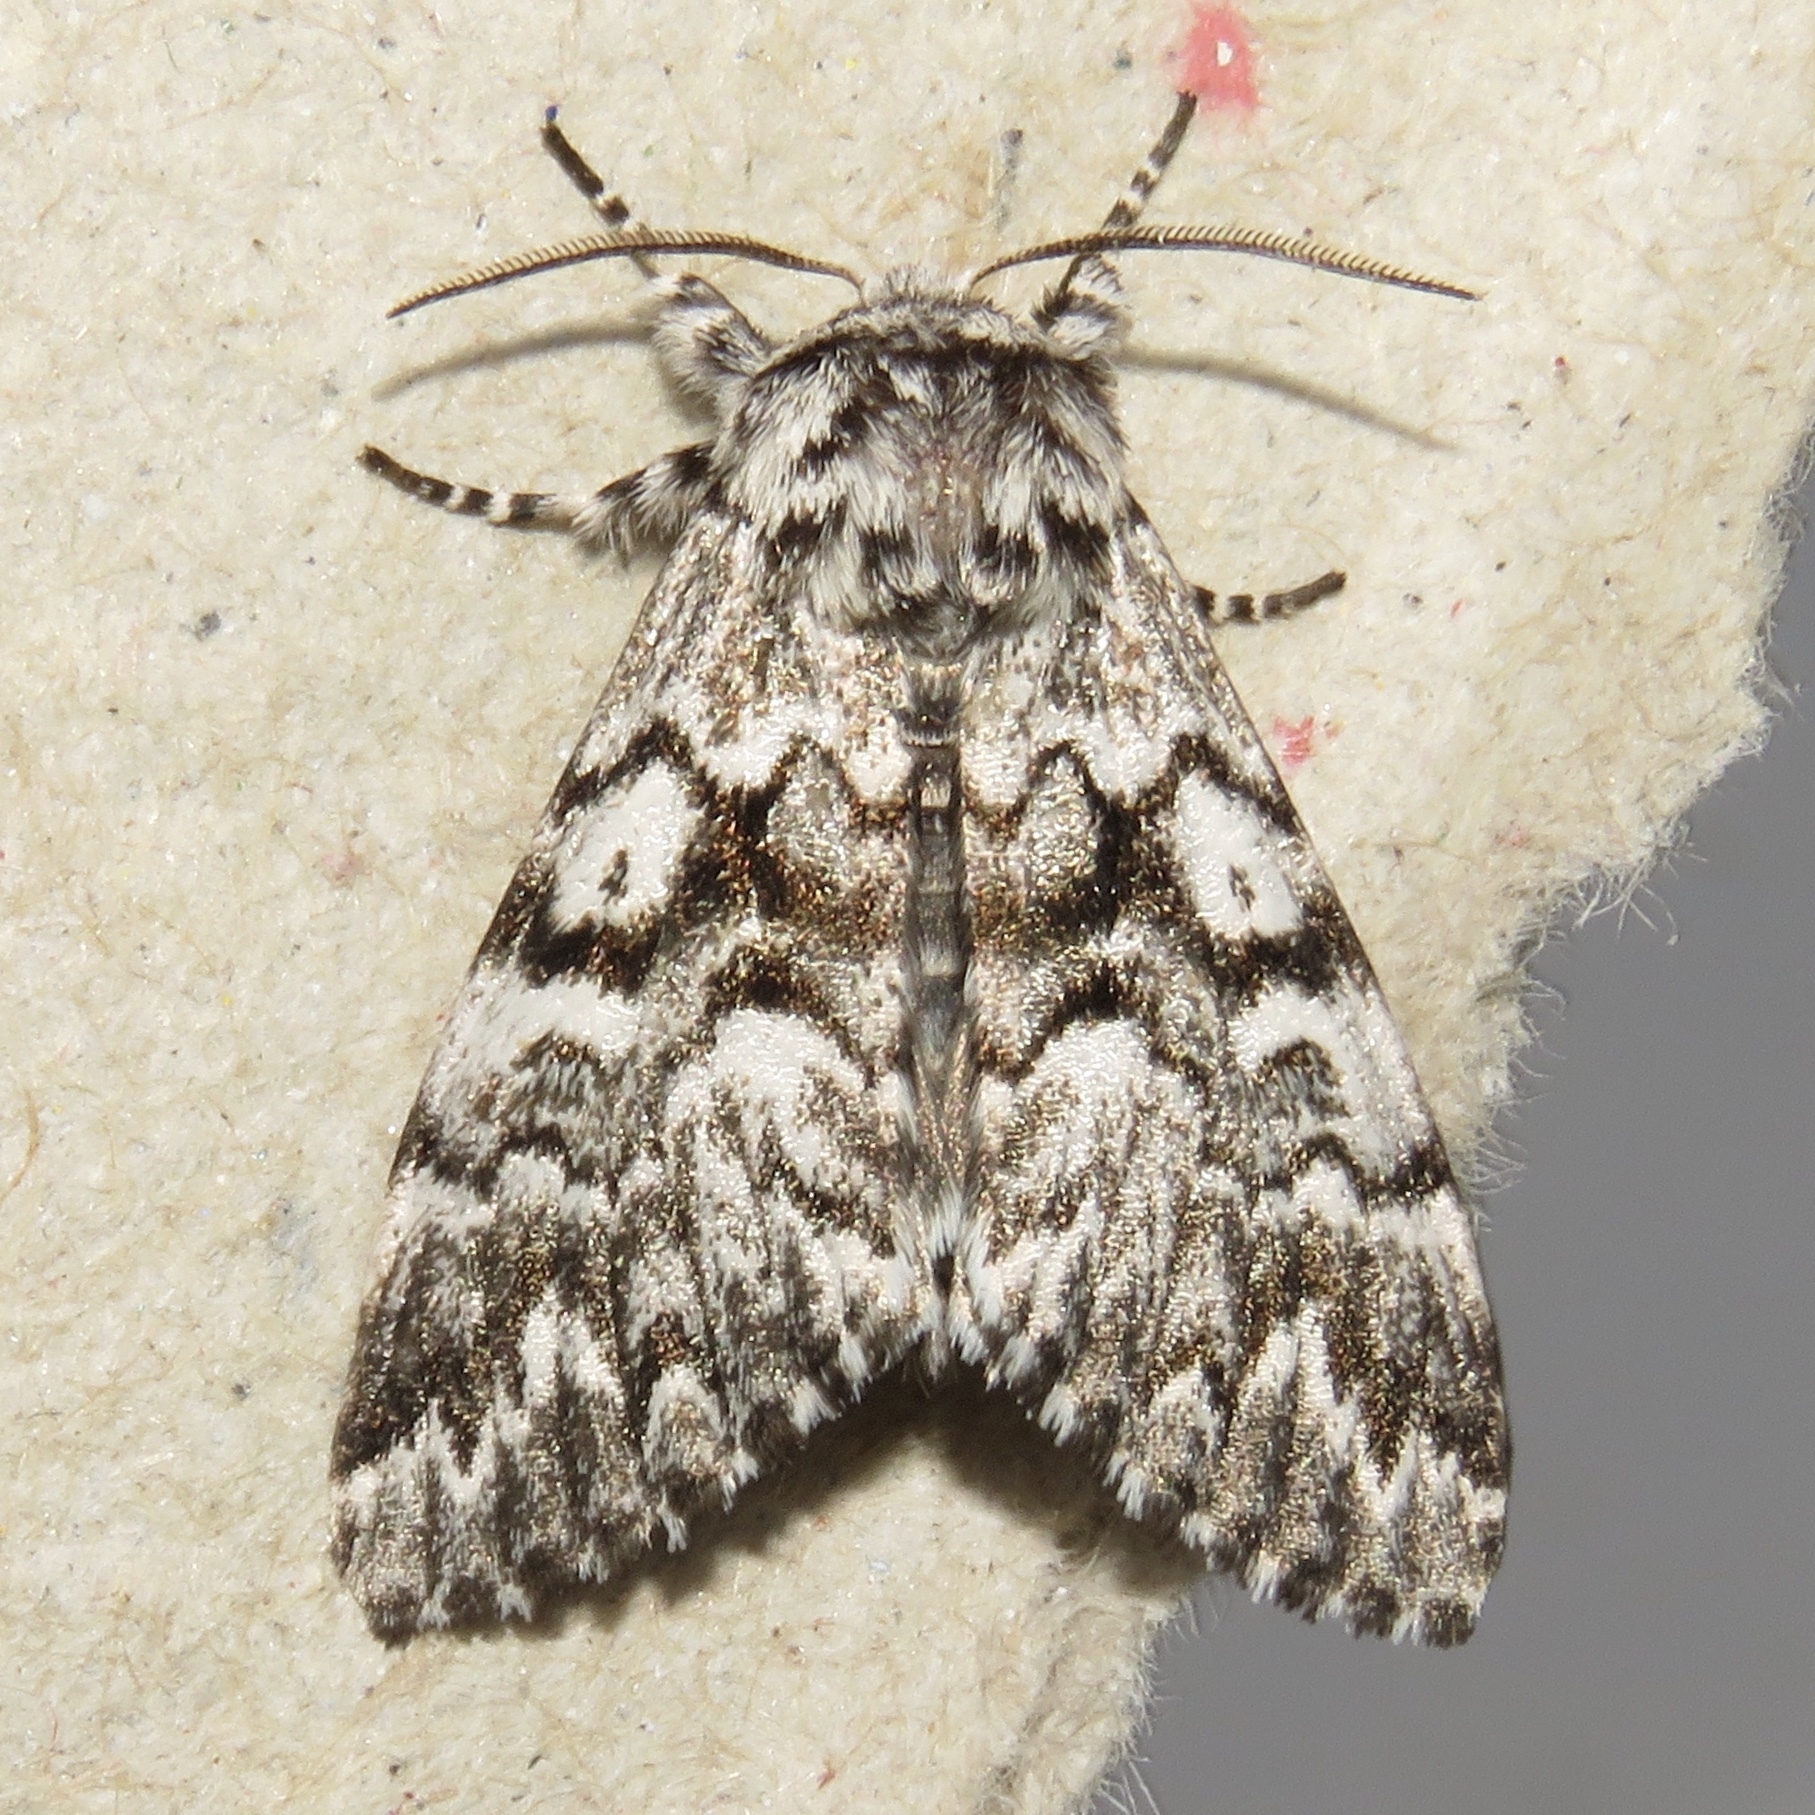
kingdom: Animalia
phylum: Arthropoda
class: Insecta
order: Lepidoptera
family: Noctuidae
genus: Panthea
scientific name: Panthea acronyctoides
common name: Black zigzag moth
